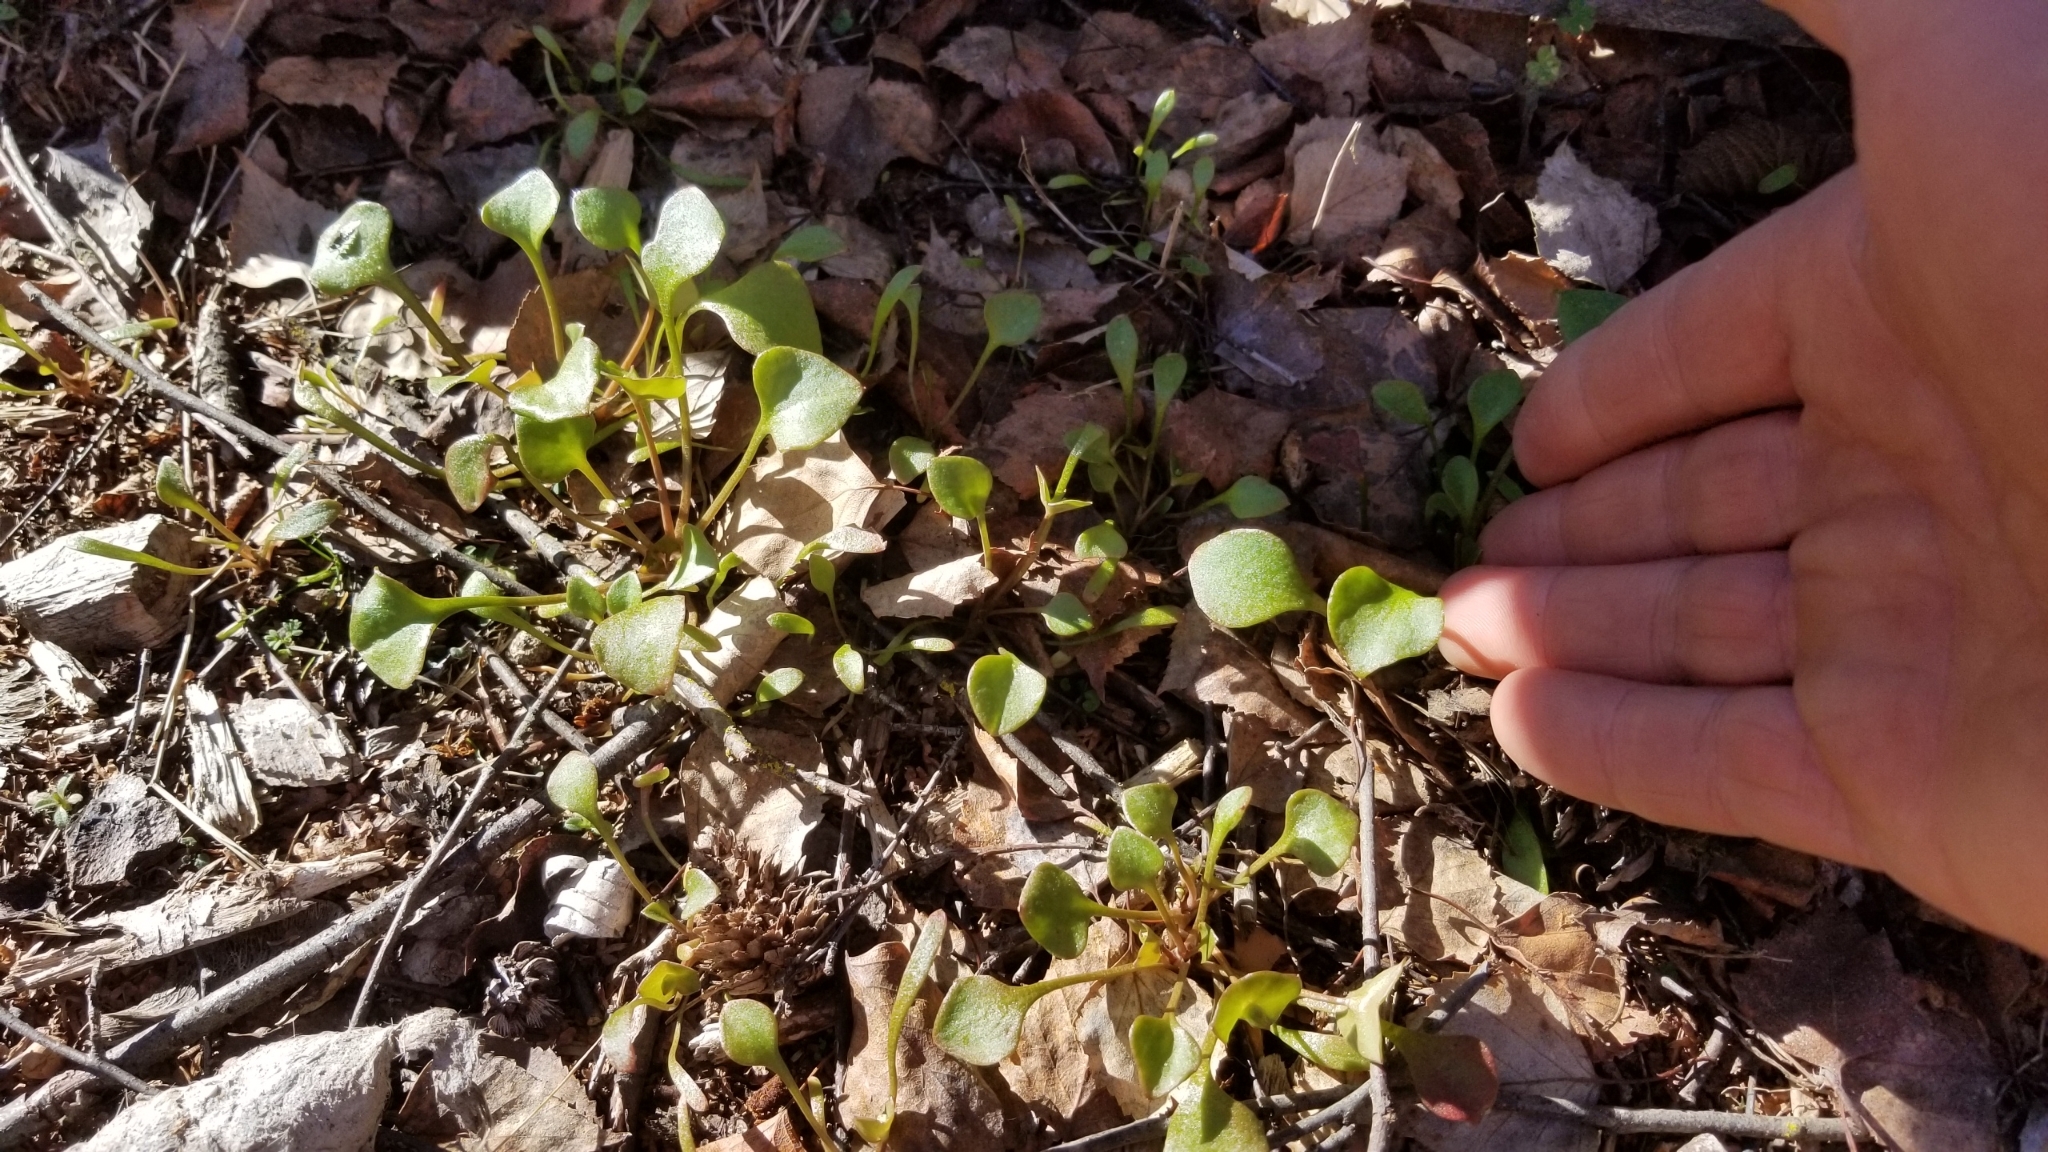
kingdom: Plantae
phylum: Tracheophyta
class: Magnoliopsida
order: Caryophyllales
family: Montiaceae
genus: Claytonia
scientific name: Claytonia perfoliata
